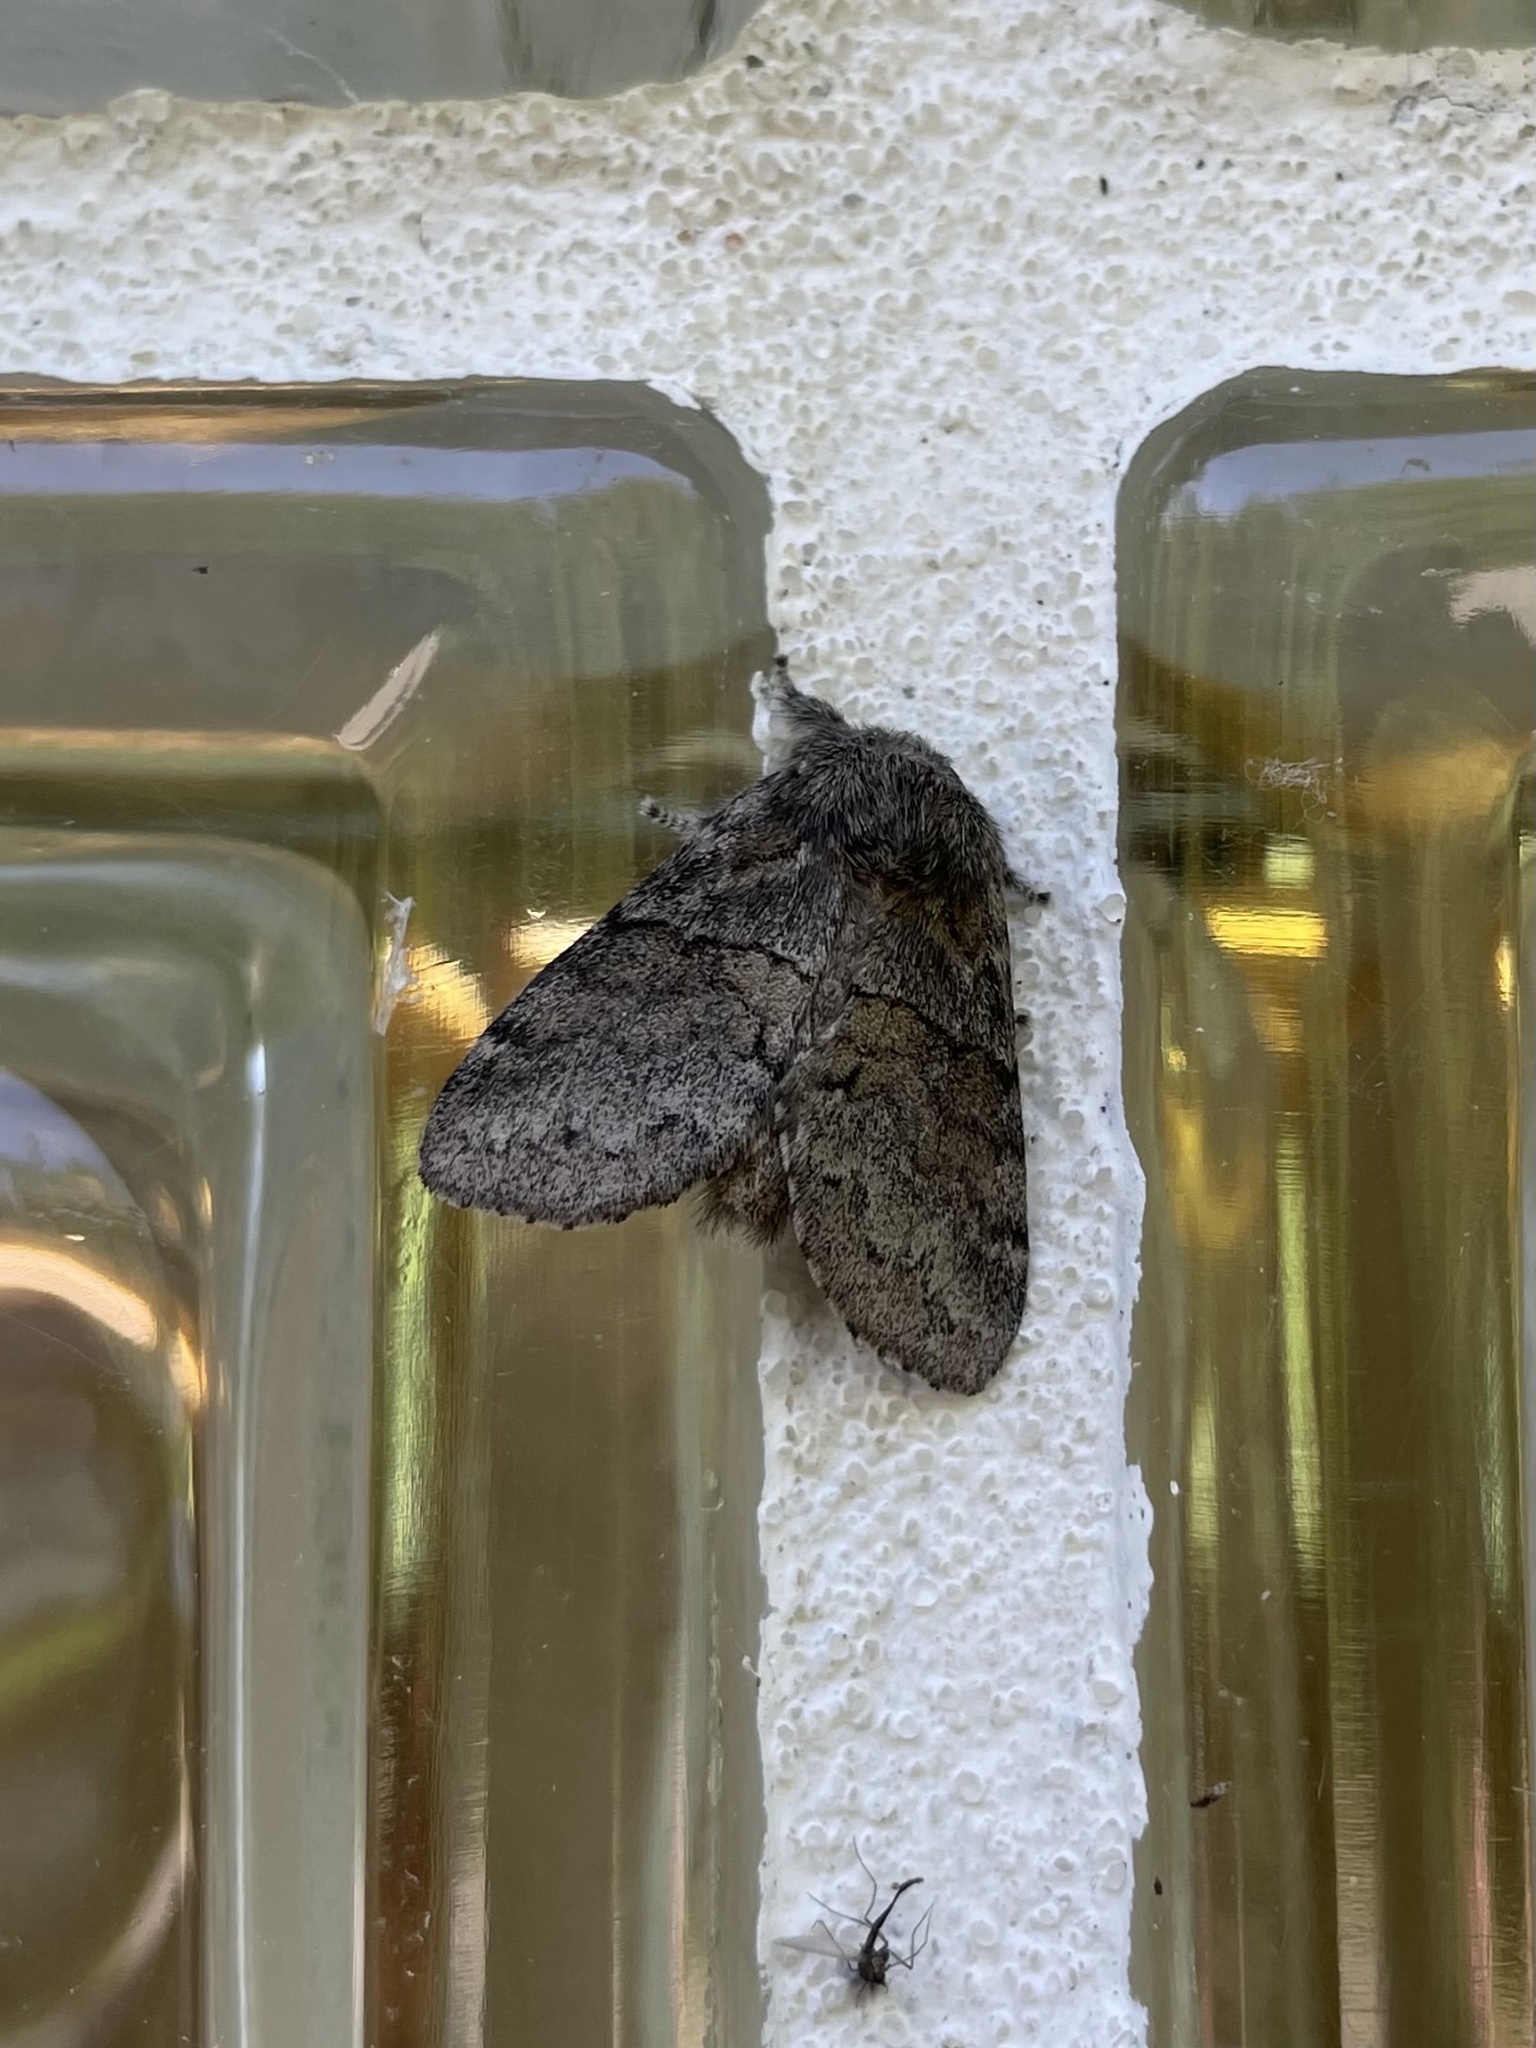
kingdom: Animalia
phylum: Arthropoda
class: Insecta
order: Lepidoptera
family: Notodontidae
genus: Gluphisia
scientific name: Gluphisia septentrionis
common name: Common gluphisia
